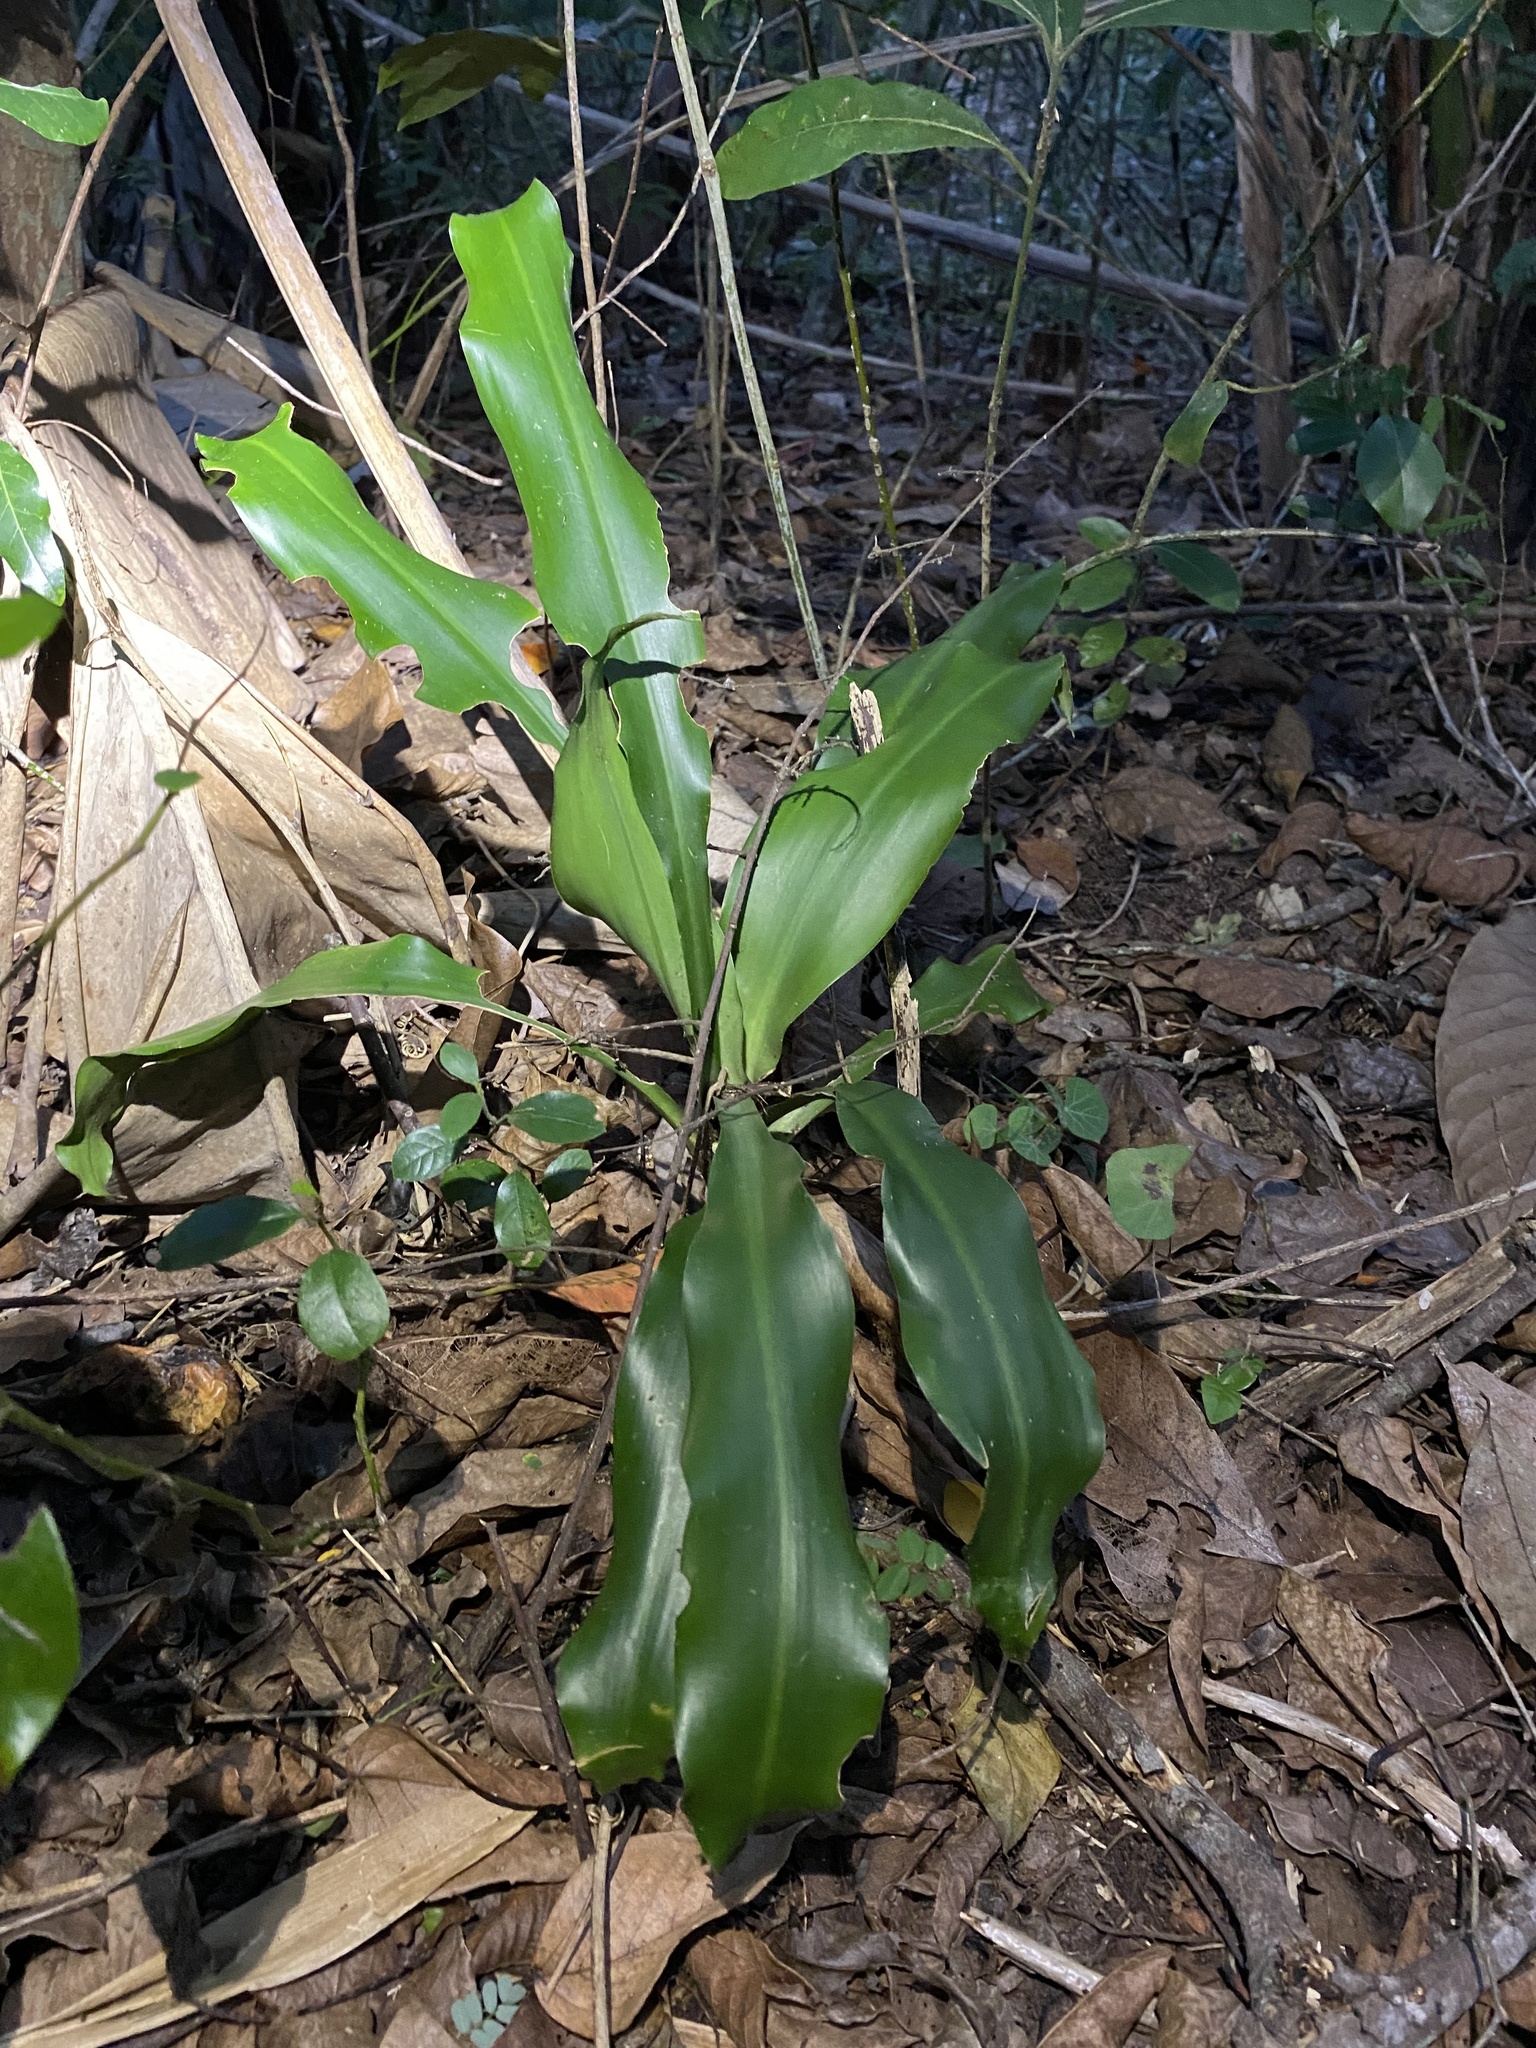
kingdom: Plantae
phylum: Tracheophyta
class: Liliopsida
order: Asparagales
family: Asparagaceae
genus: Dracaena
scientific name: Dracaena aletriformis
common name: Large-leaved dragon tree
